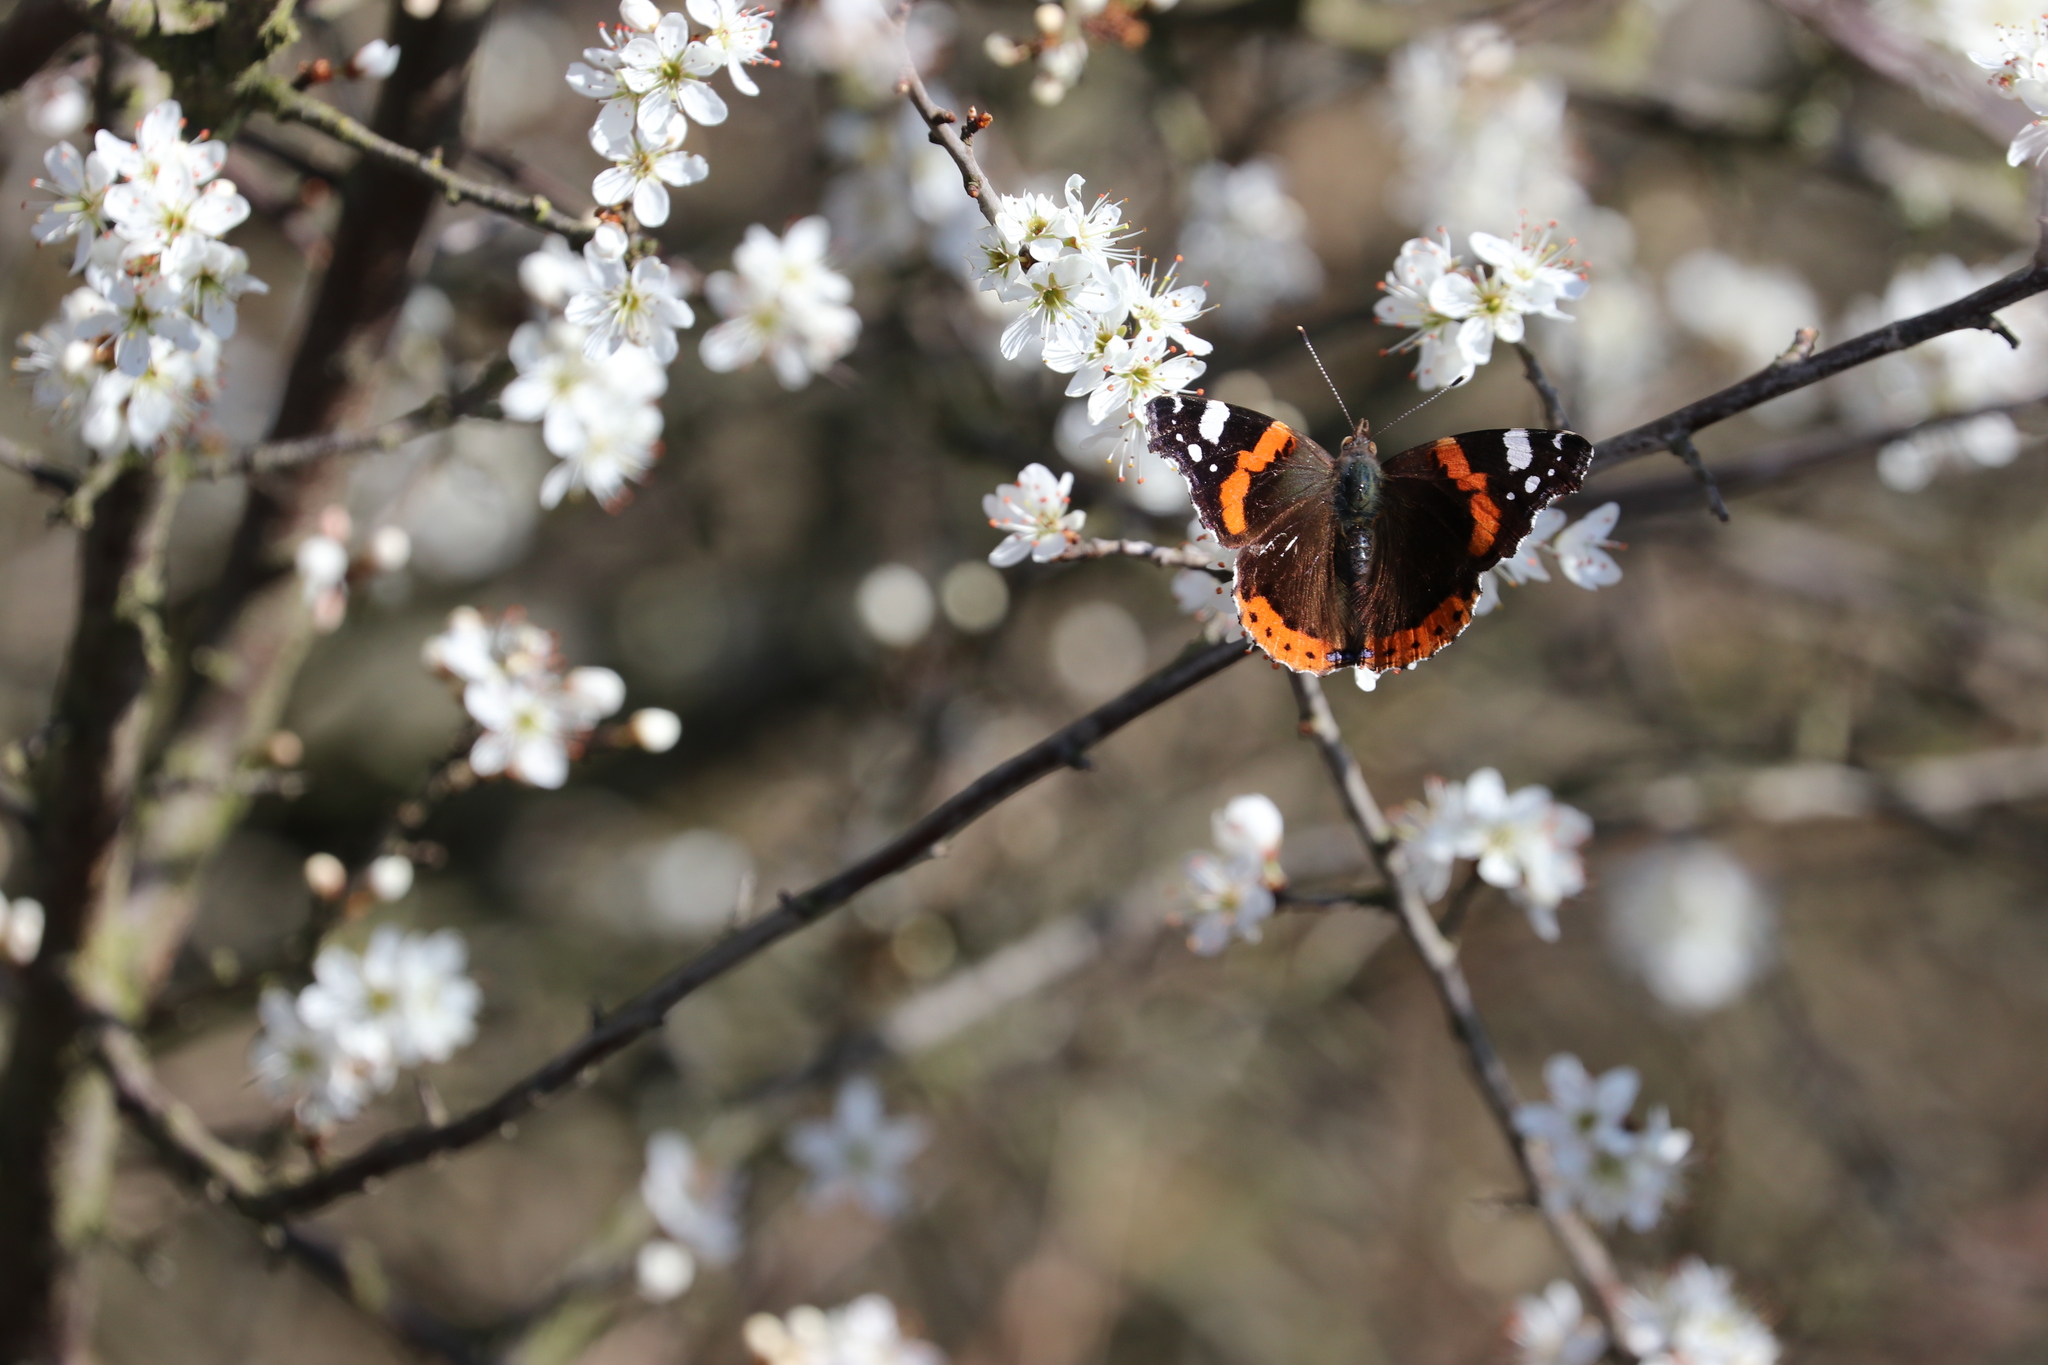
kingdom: Animalia
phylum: Arthropoda
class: Insecta
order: Lepidoptera
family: Nymphalidae
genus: Vanessa
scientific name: Vanessa atalanta
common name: Red admiral
